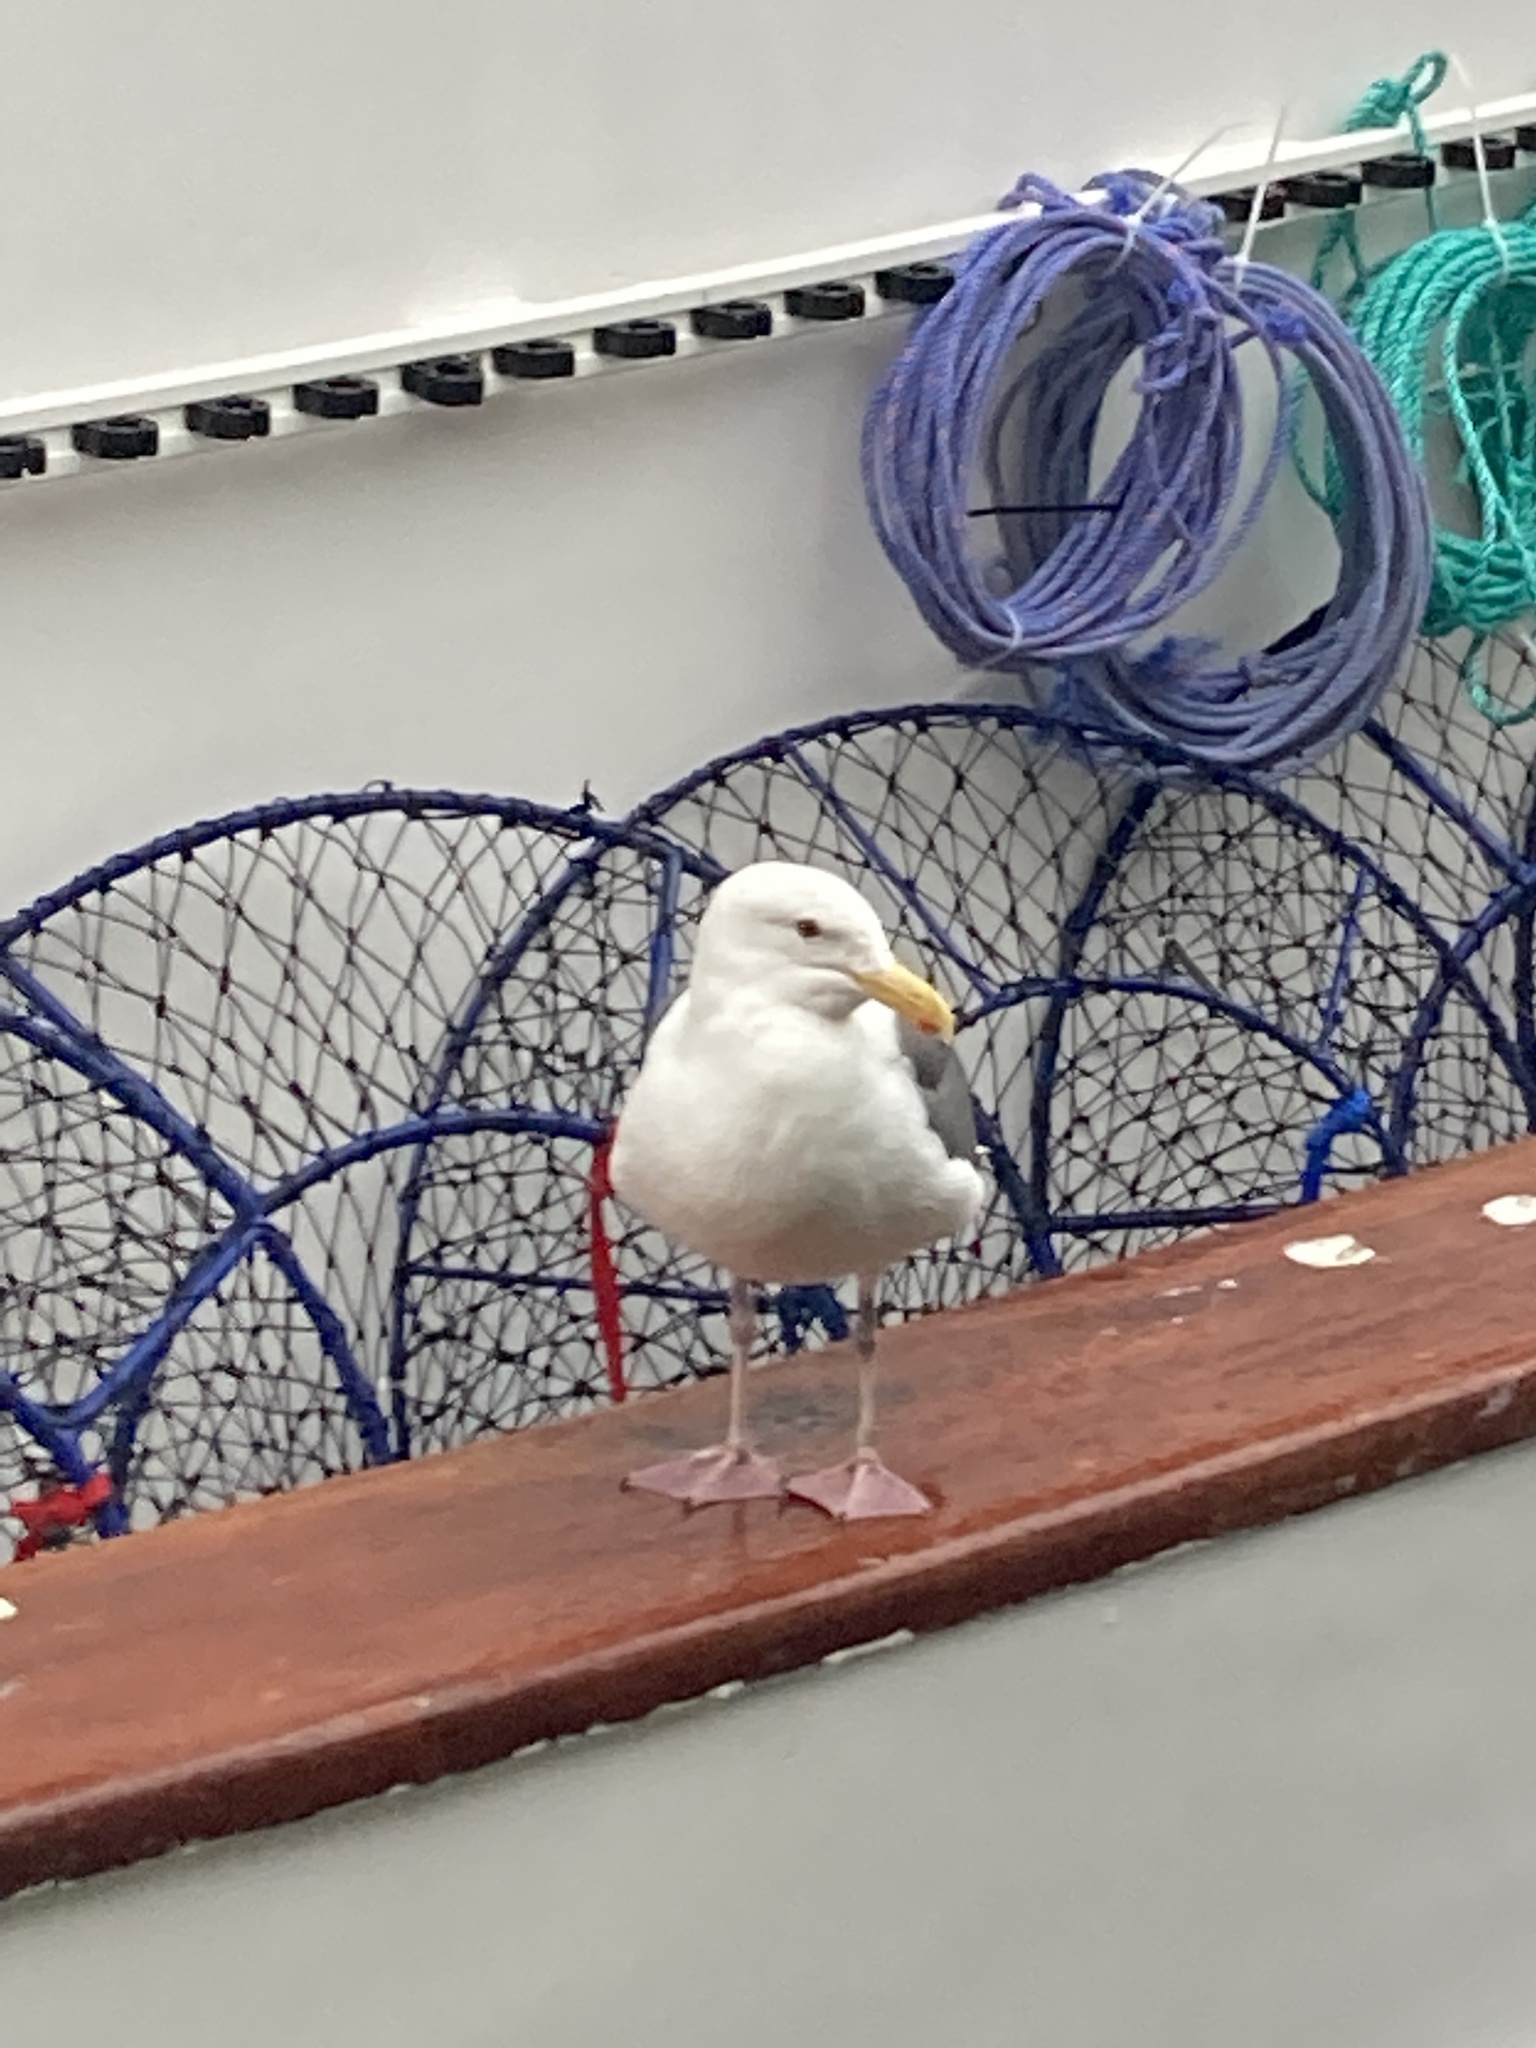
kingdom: Animalia
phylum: Chordata
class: Aves
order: Charadriiformes
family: Laridae
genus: Larus
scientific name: Larus occidentalis
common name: Western gull
